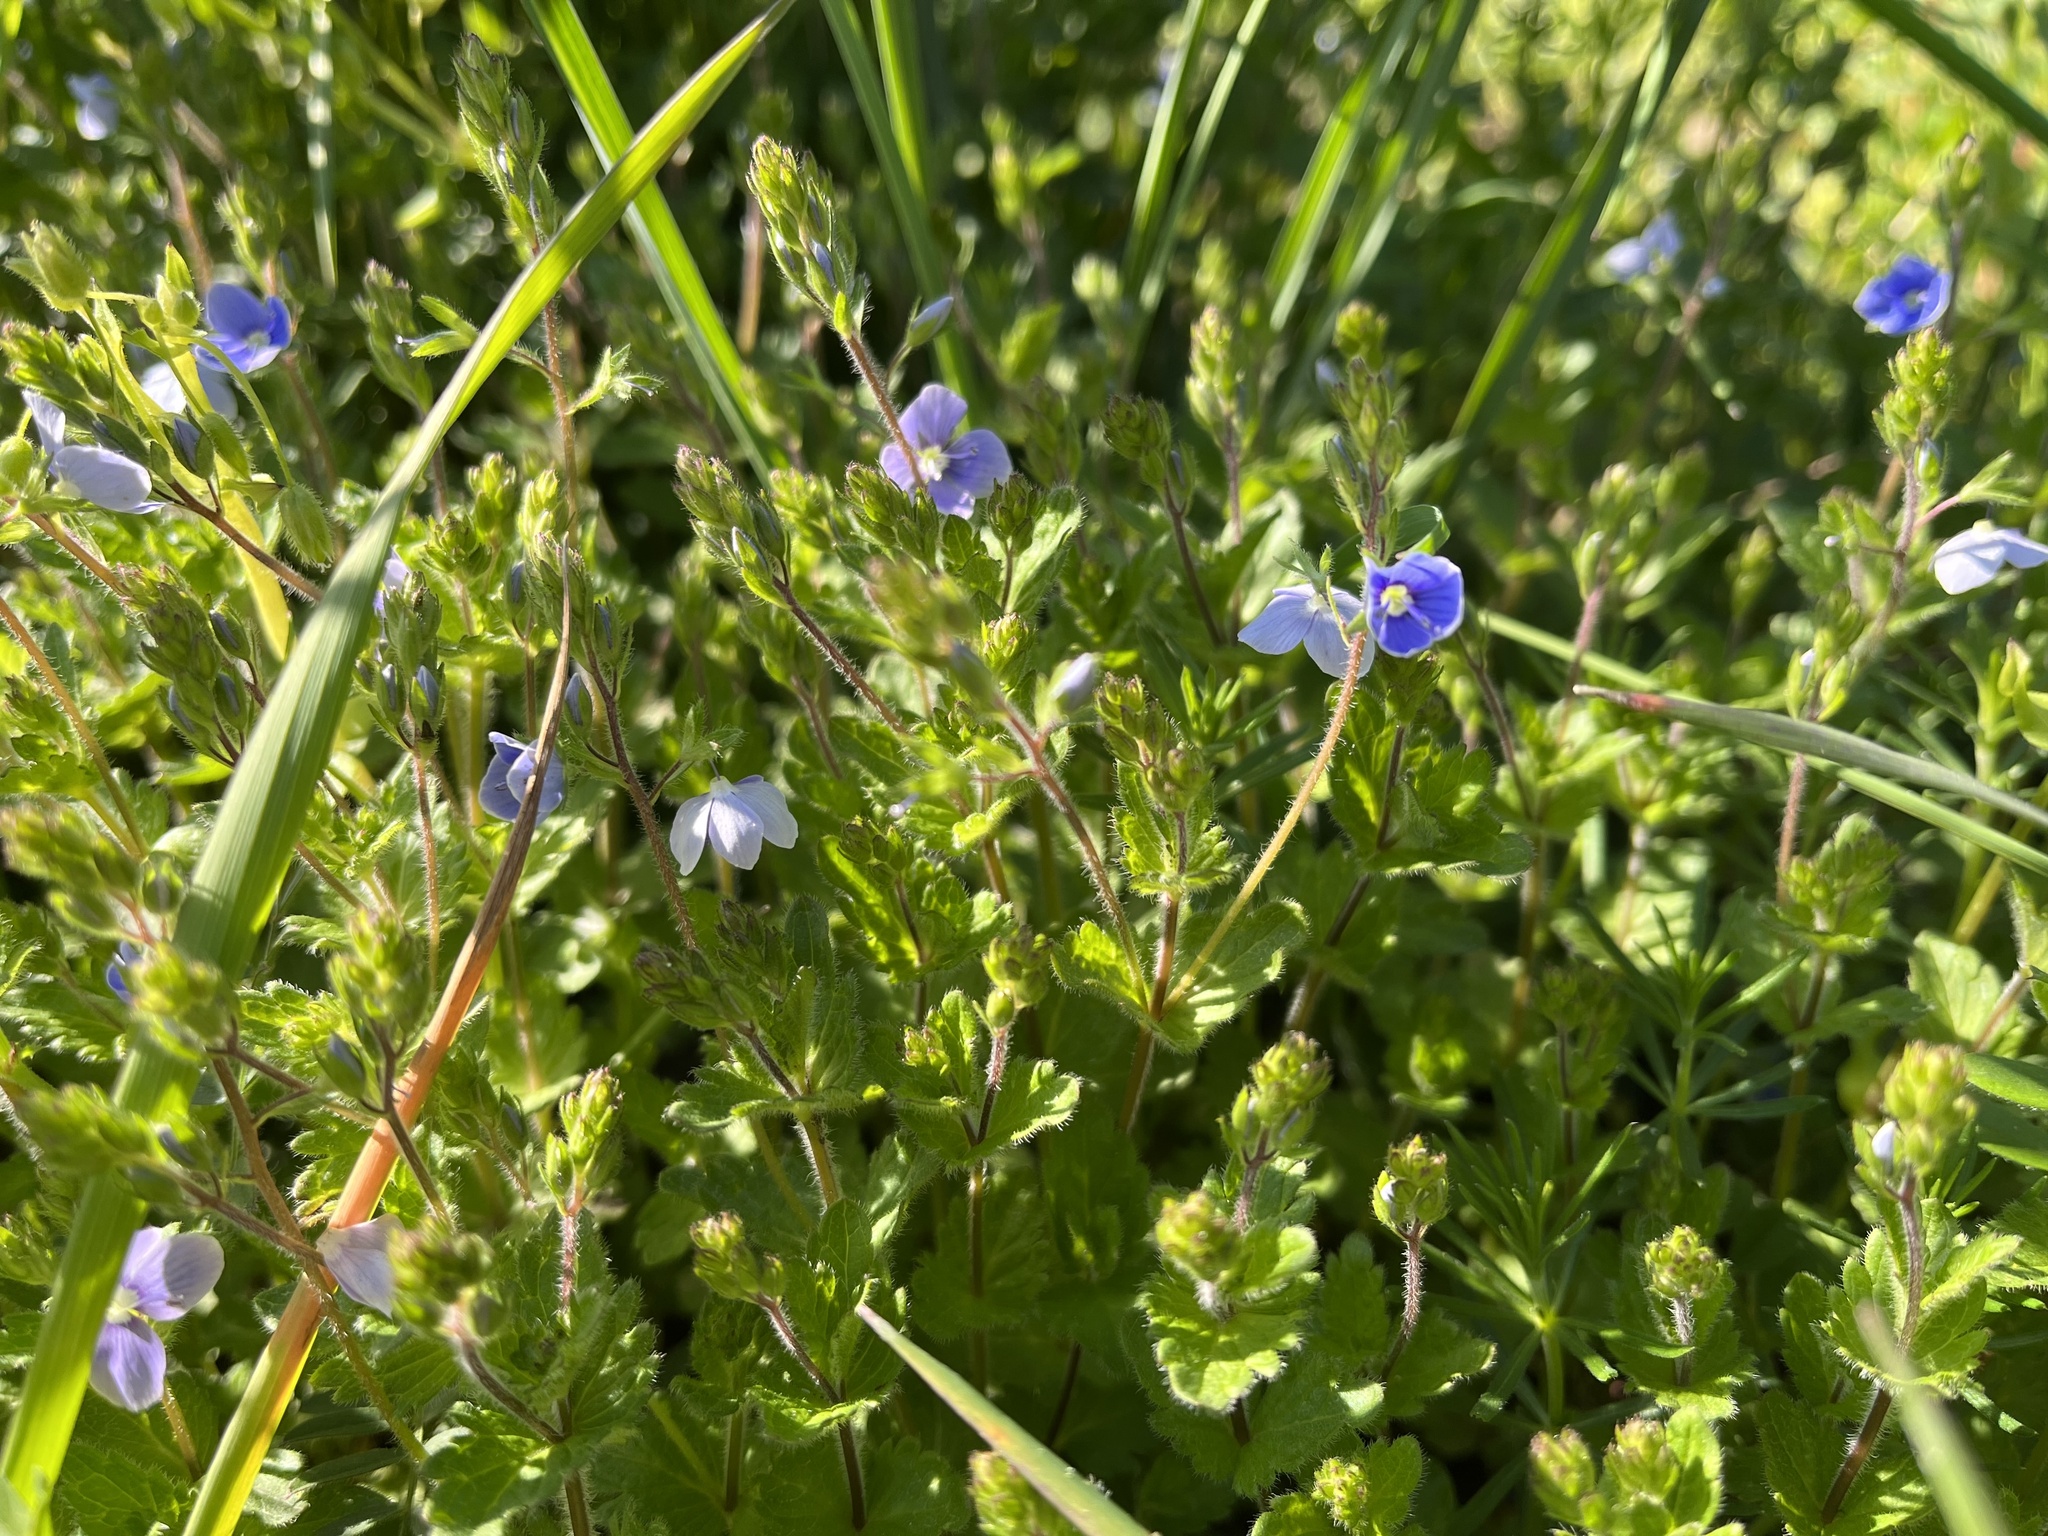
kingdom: Plantae
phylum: Tracheophyta
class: Magnoliopsida
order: Lamiales
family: Plantaginaceae
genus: Veronica
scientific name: Veronica chamaedrys
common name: Germander speedwell
